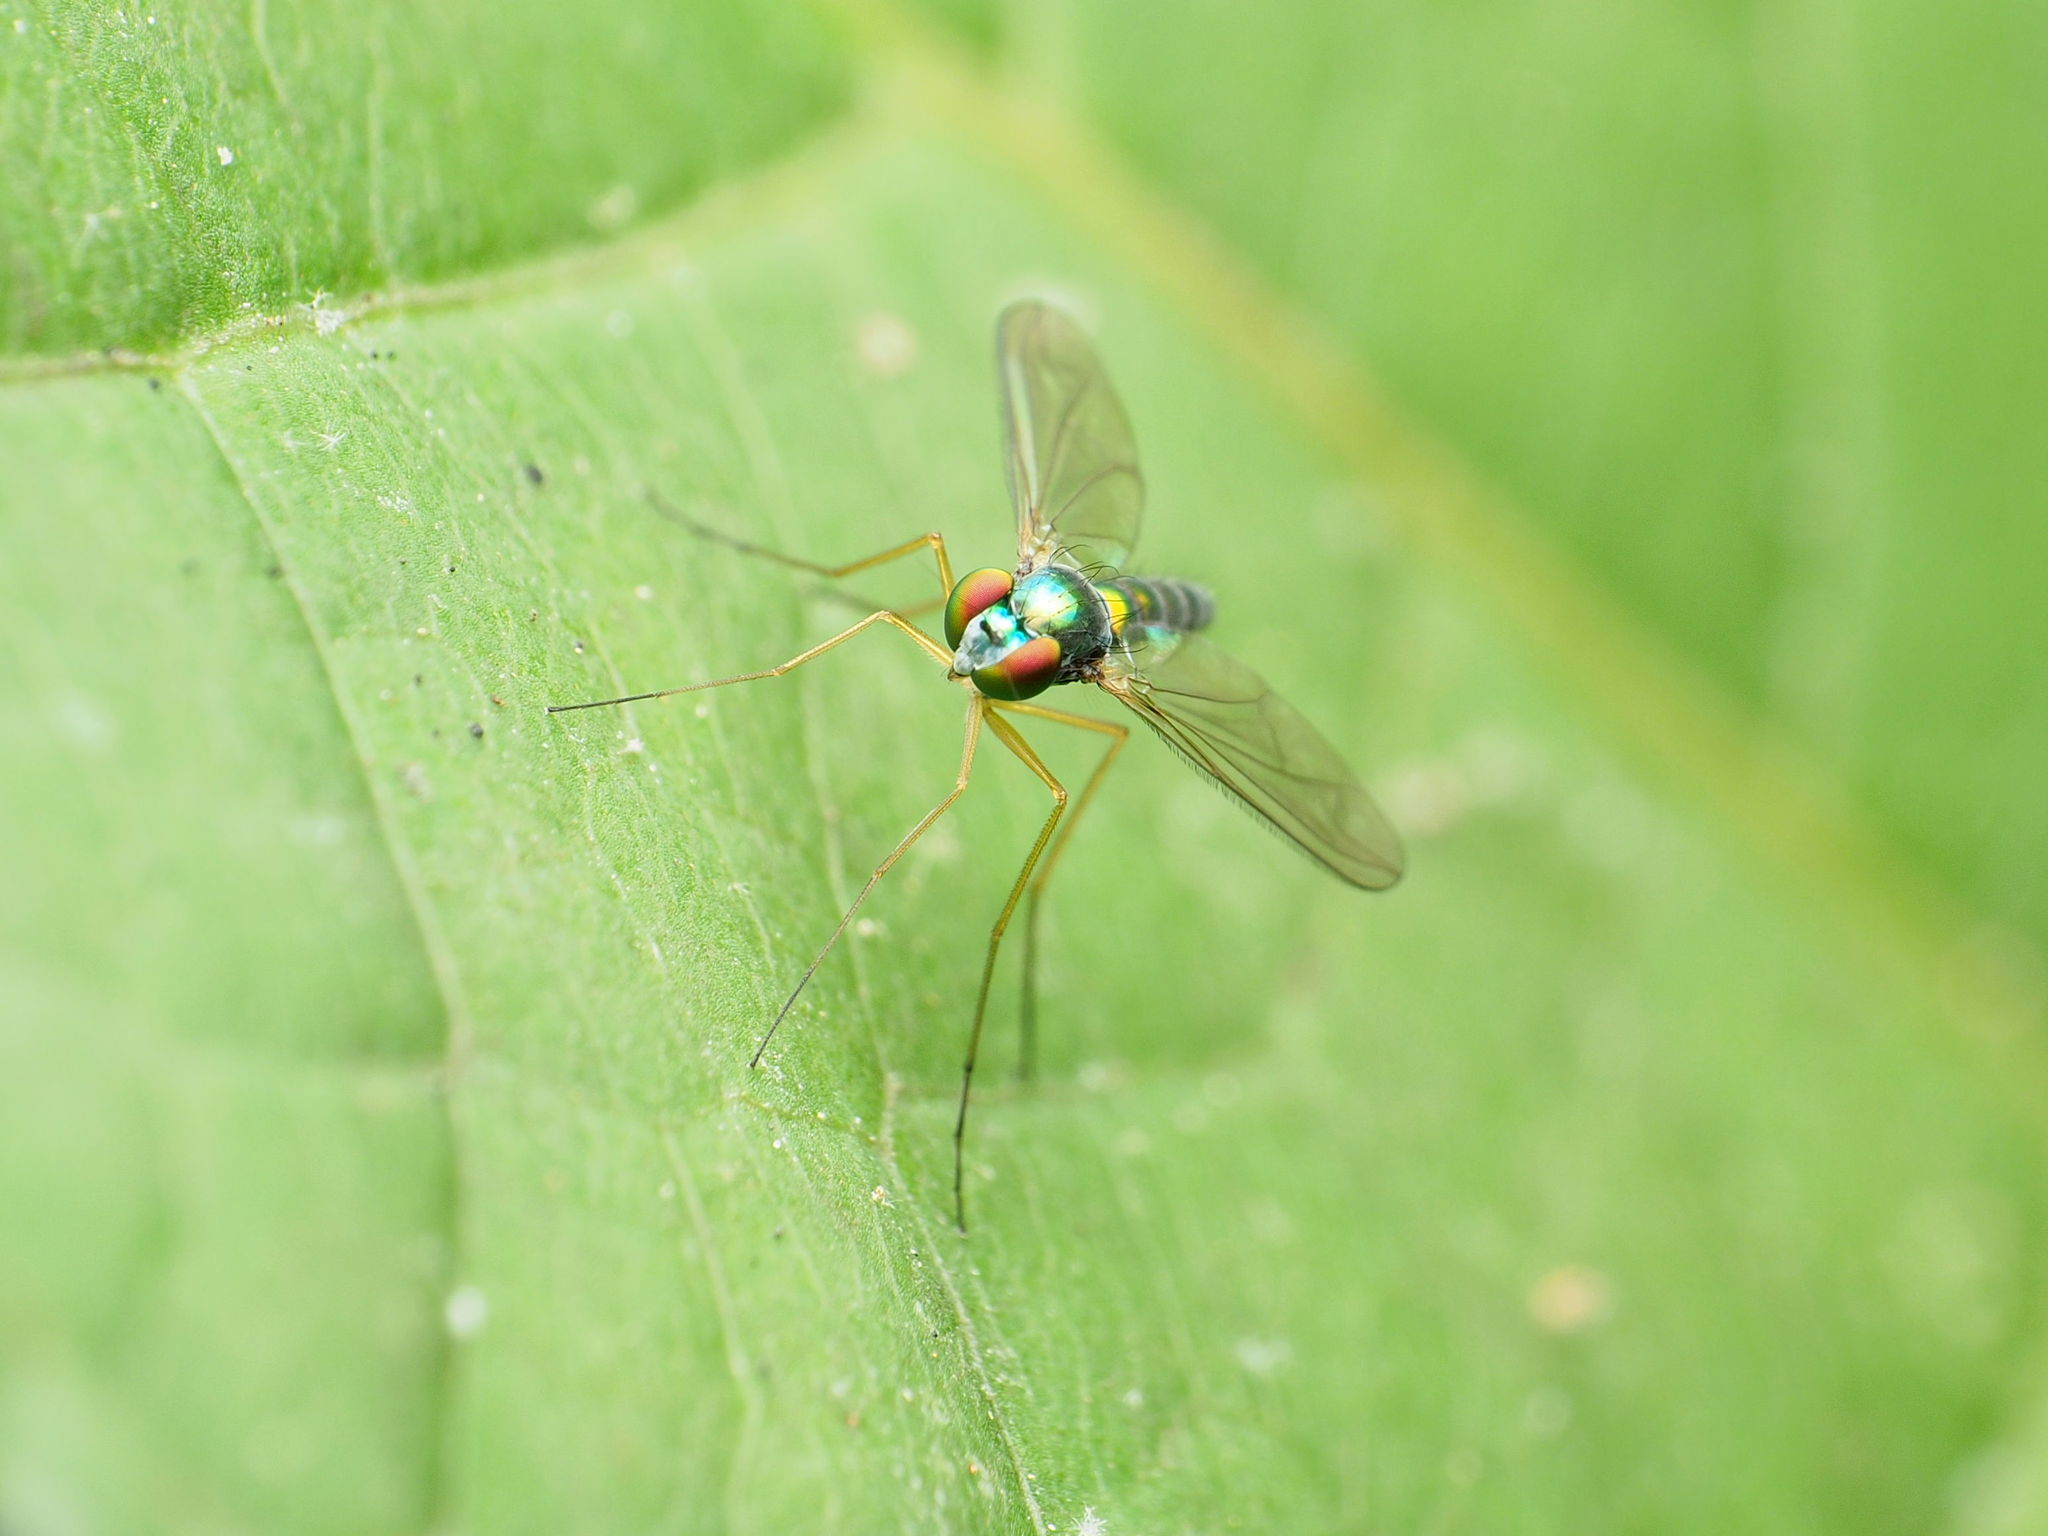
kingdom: Animalia
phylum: Arthropoda
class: Insecta
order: Diptera
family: Dolichopodidae
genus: Amblypsilopus
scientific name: Amblypsilopus scintillans
